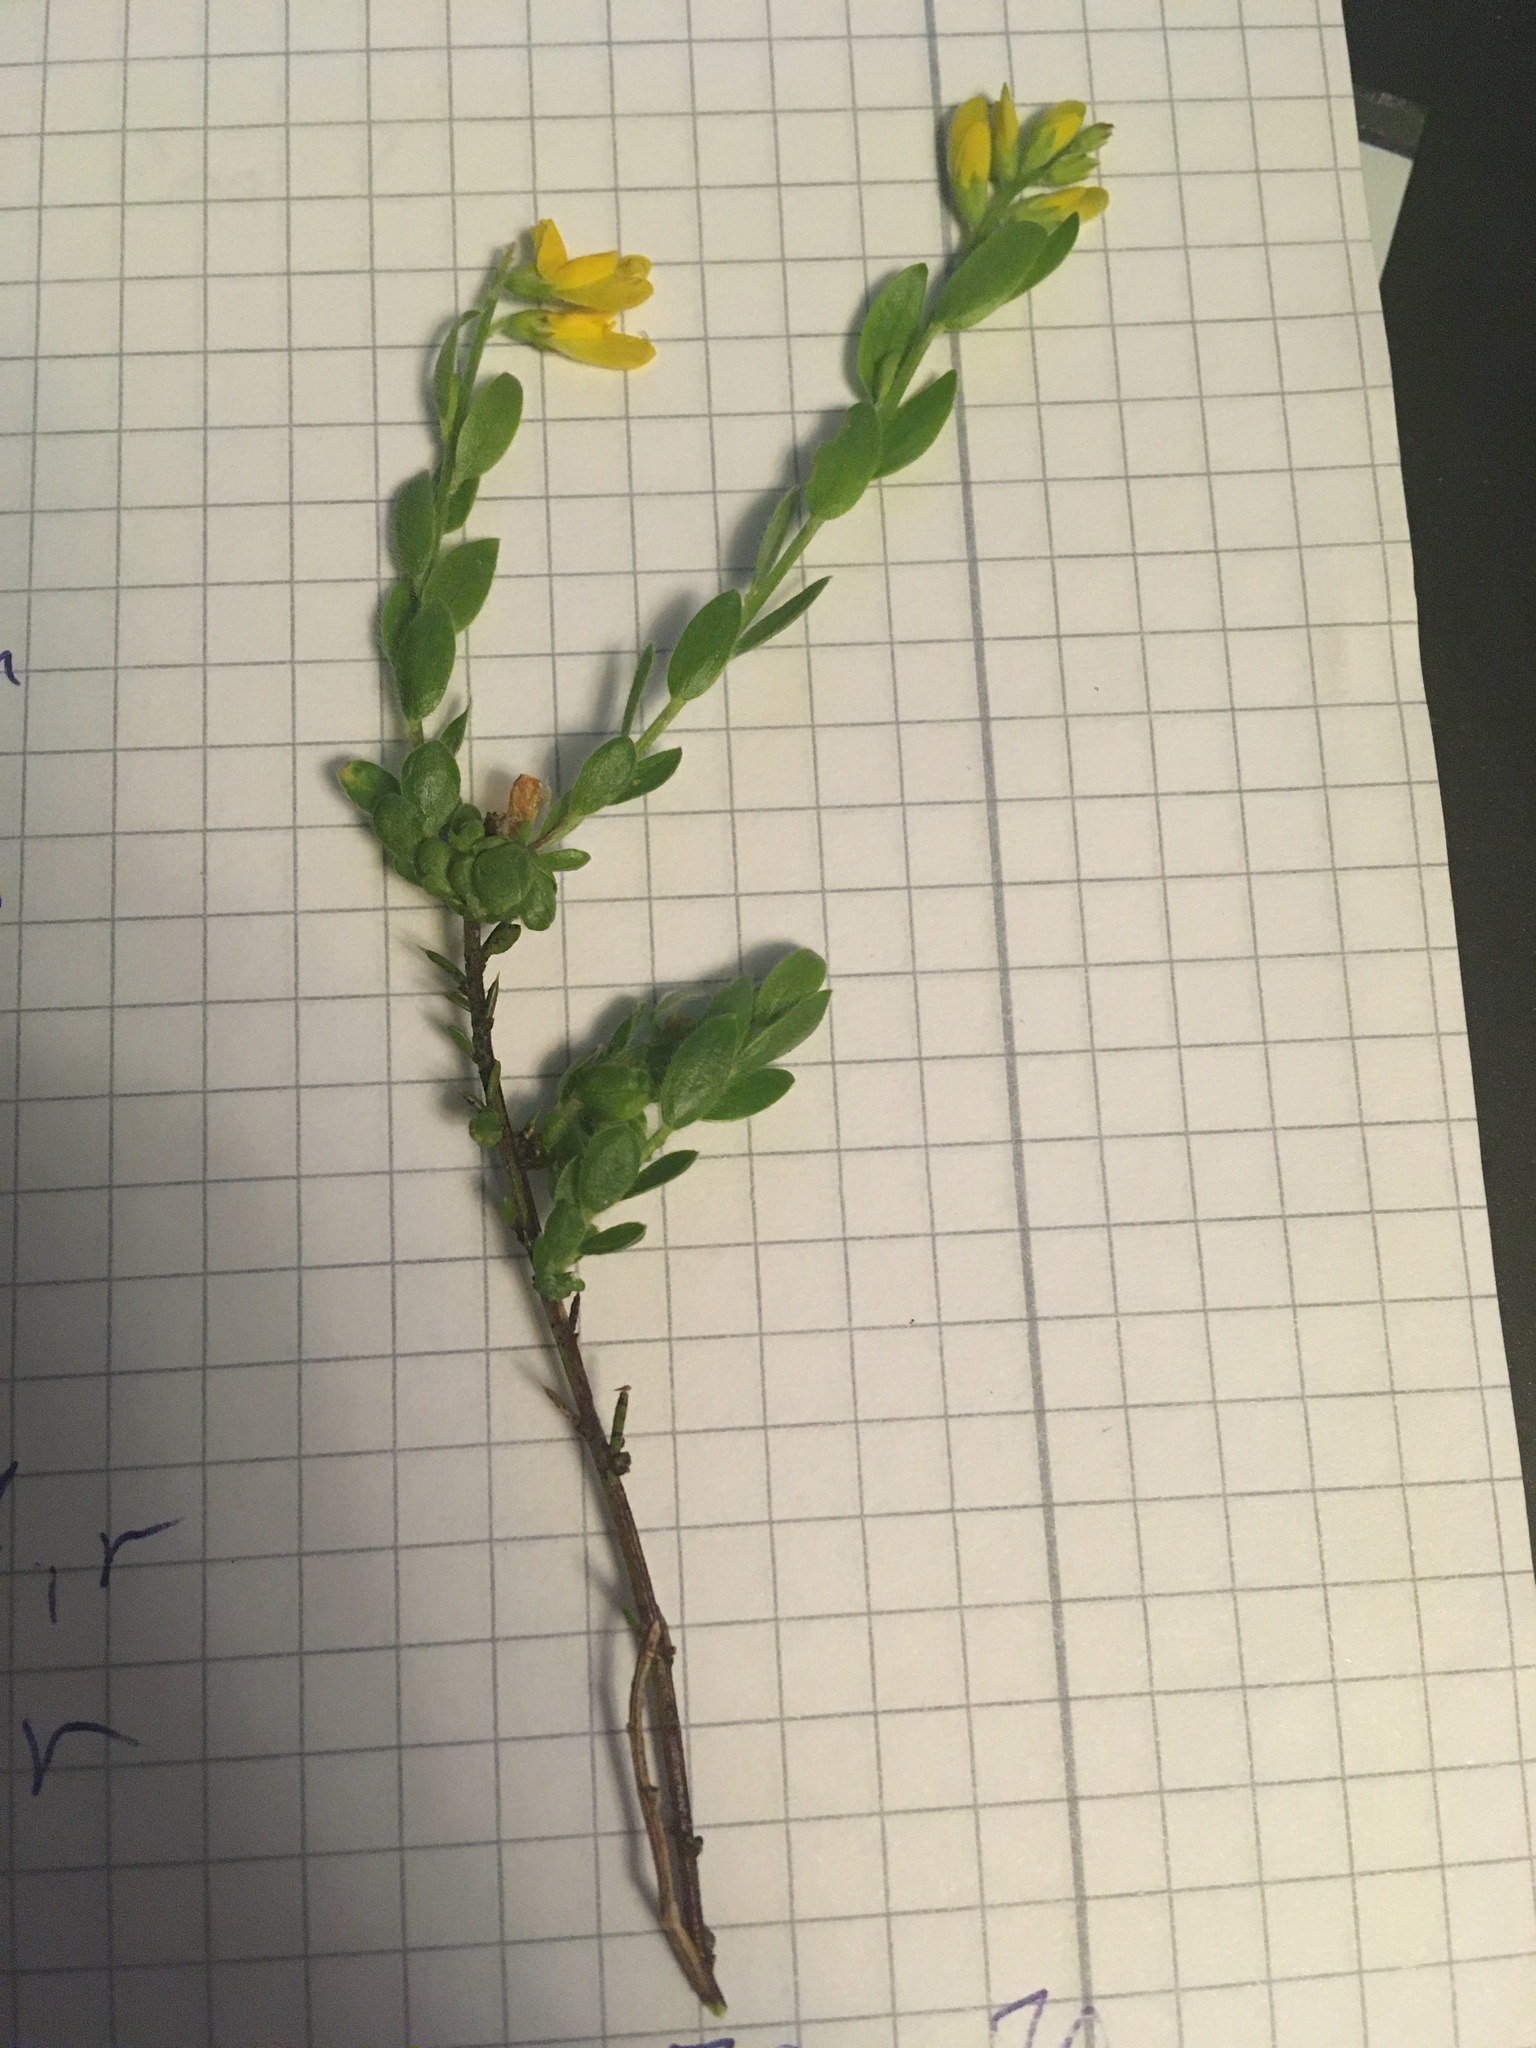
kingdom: Plantae
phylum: Tracheophyta
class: Magnoliopsida
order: Fabales
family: Fabaceae
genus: Genista
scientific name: Genista germanica
